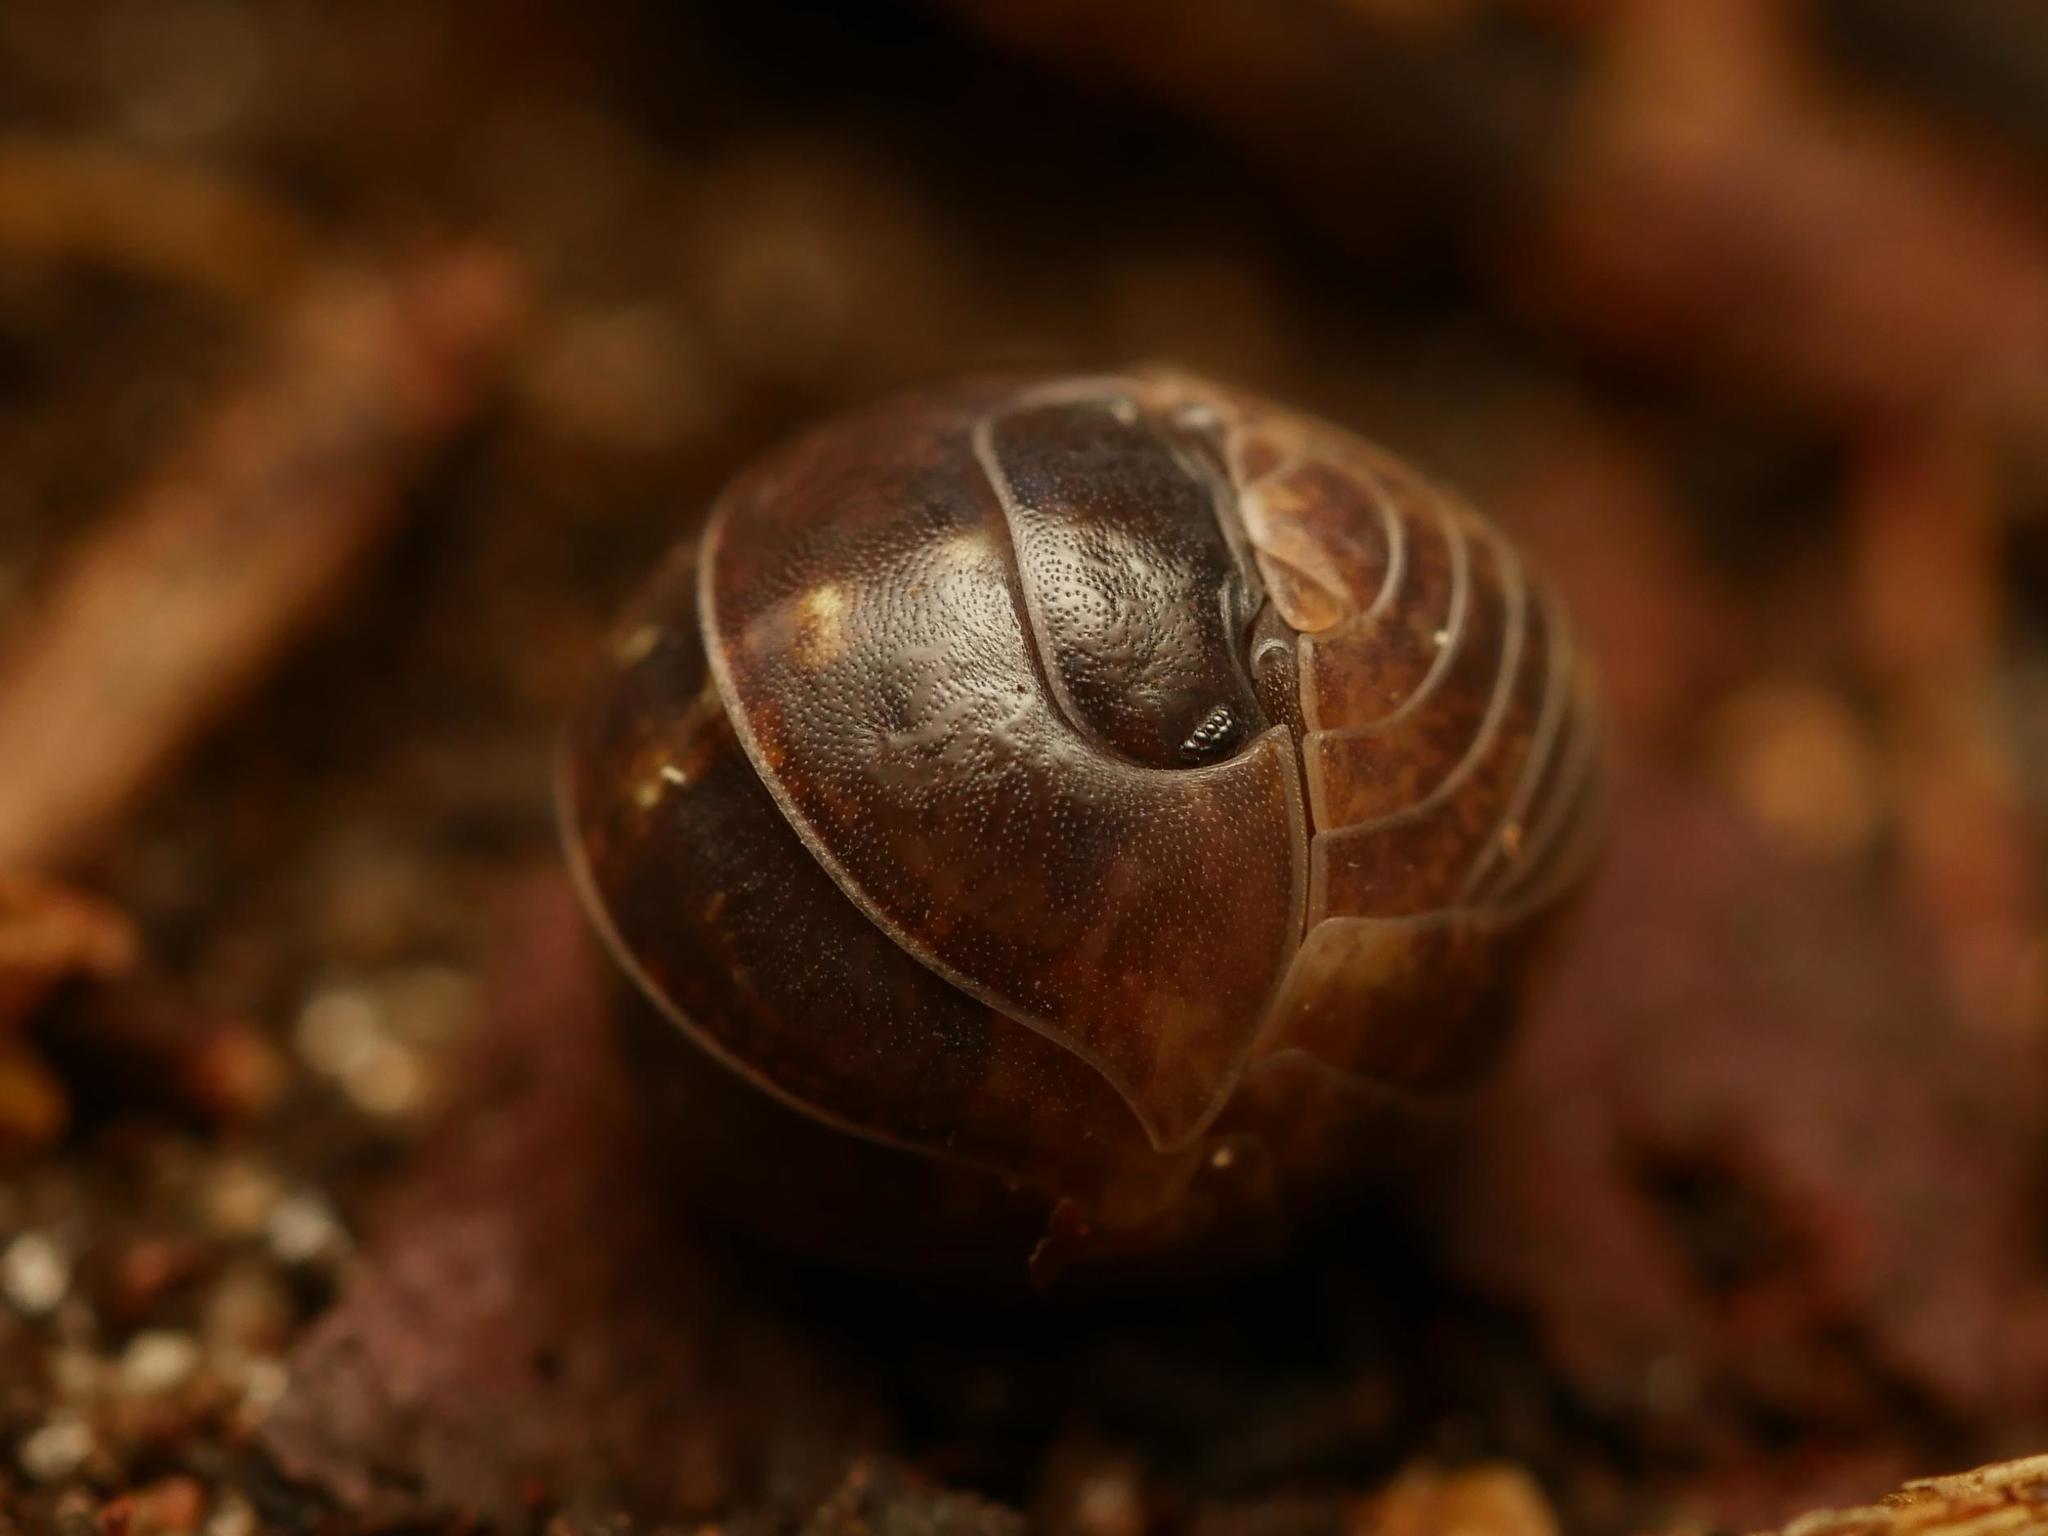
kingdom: Animalia
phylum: Arthropoda
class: Malacostraca
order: Isopoda
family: Armadillidiidae
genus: Armadillidium
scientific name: Armadillidium vulgare
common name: Common pill woodlouse
